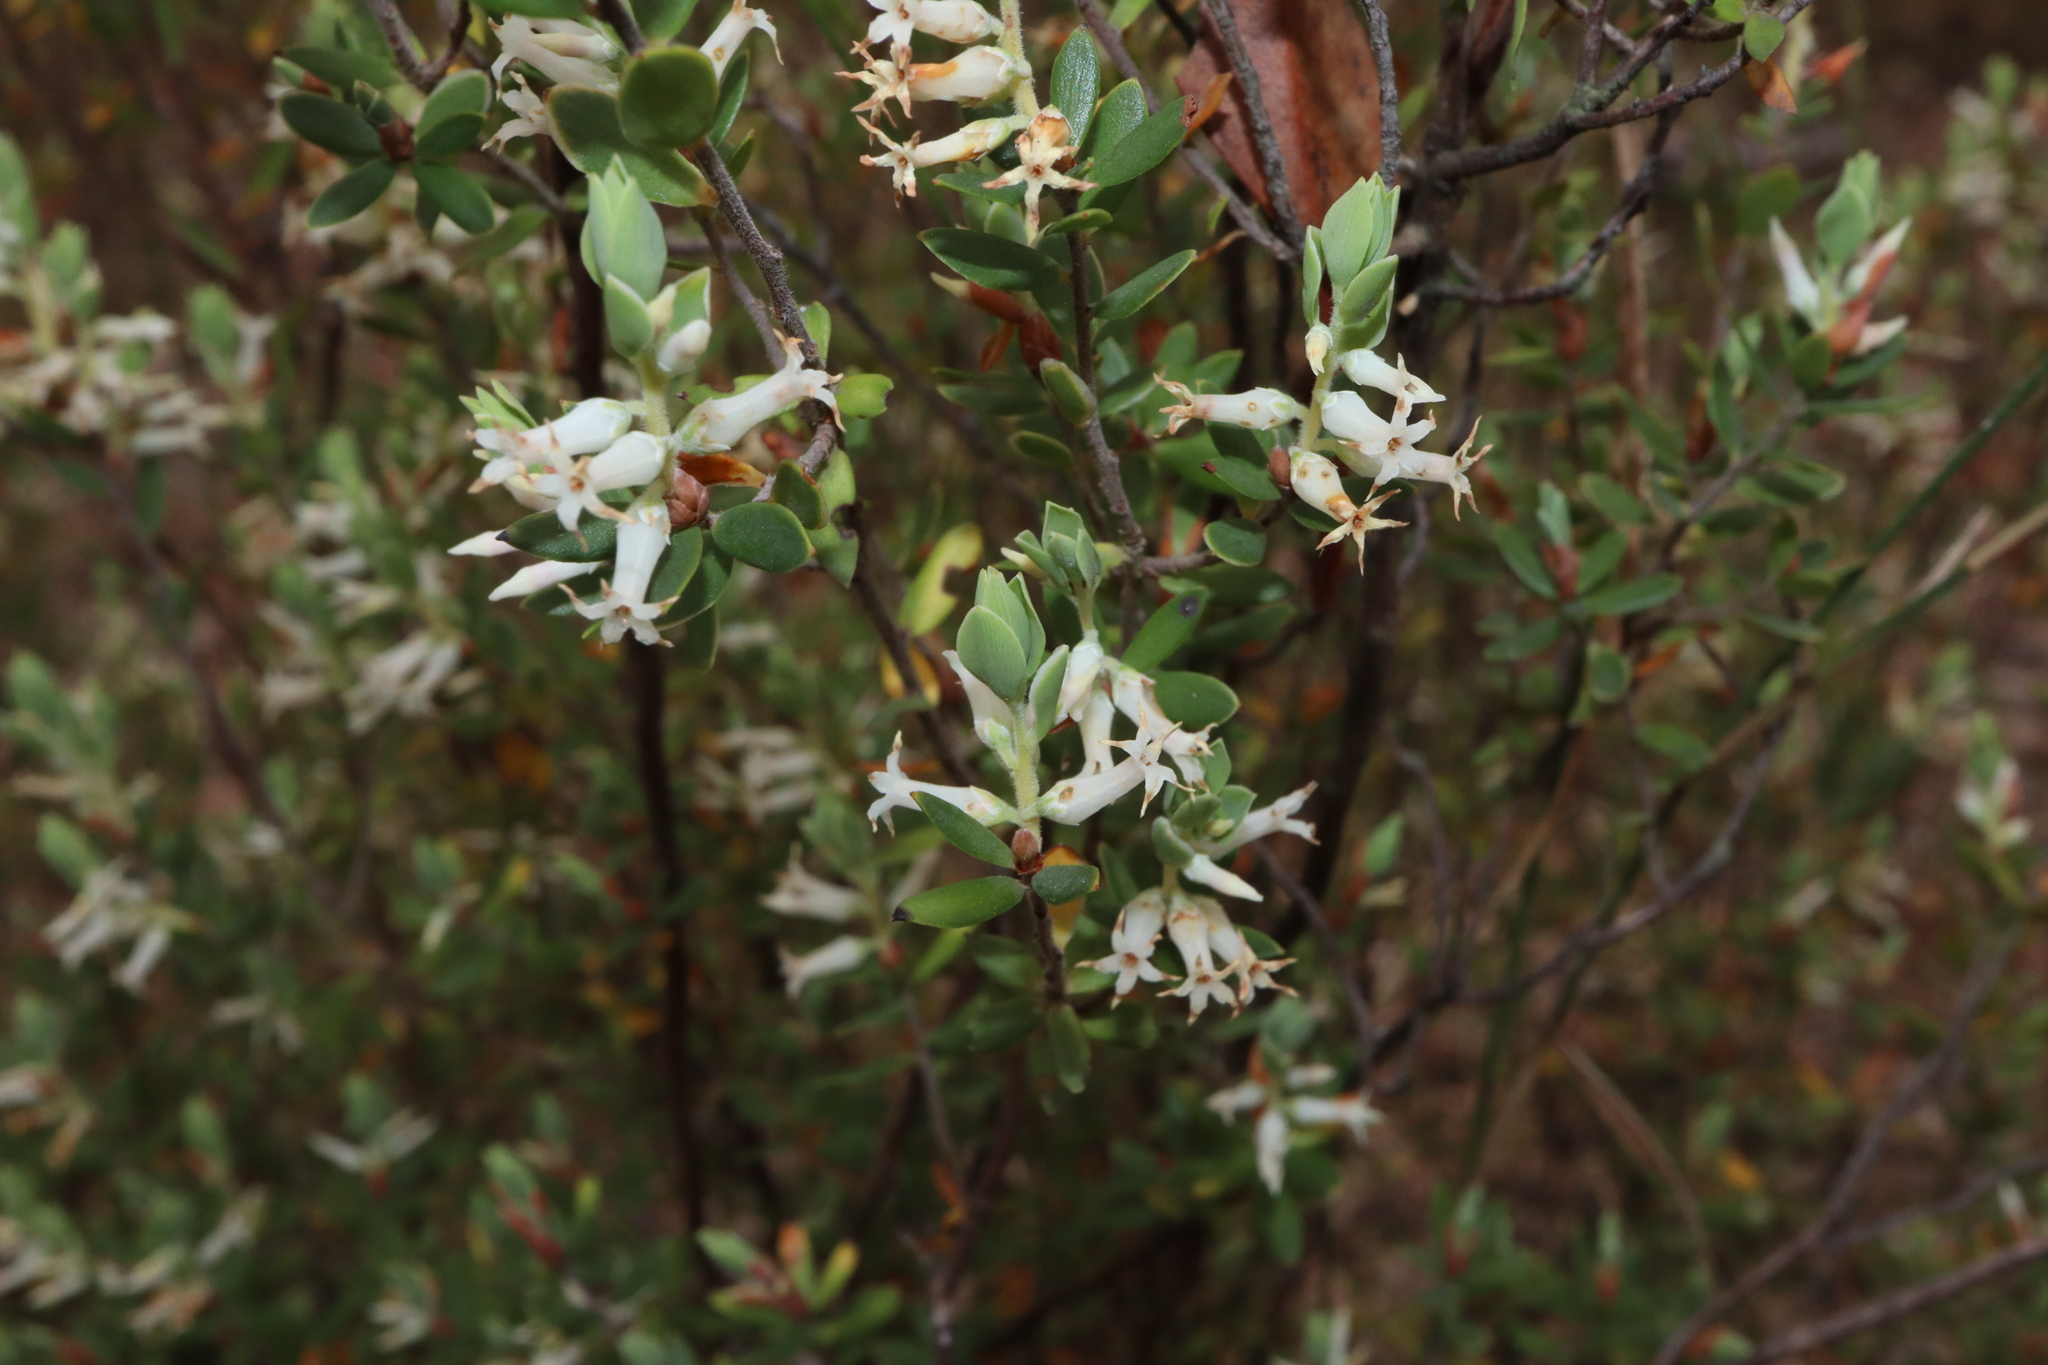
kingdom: Plantae
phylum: Tracheophyta
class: Magnoliopsida
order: Ericales
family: Ericaceae
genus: Brachyloma
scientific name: Brachyloma daphnoides
